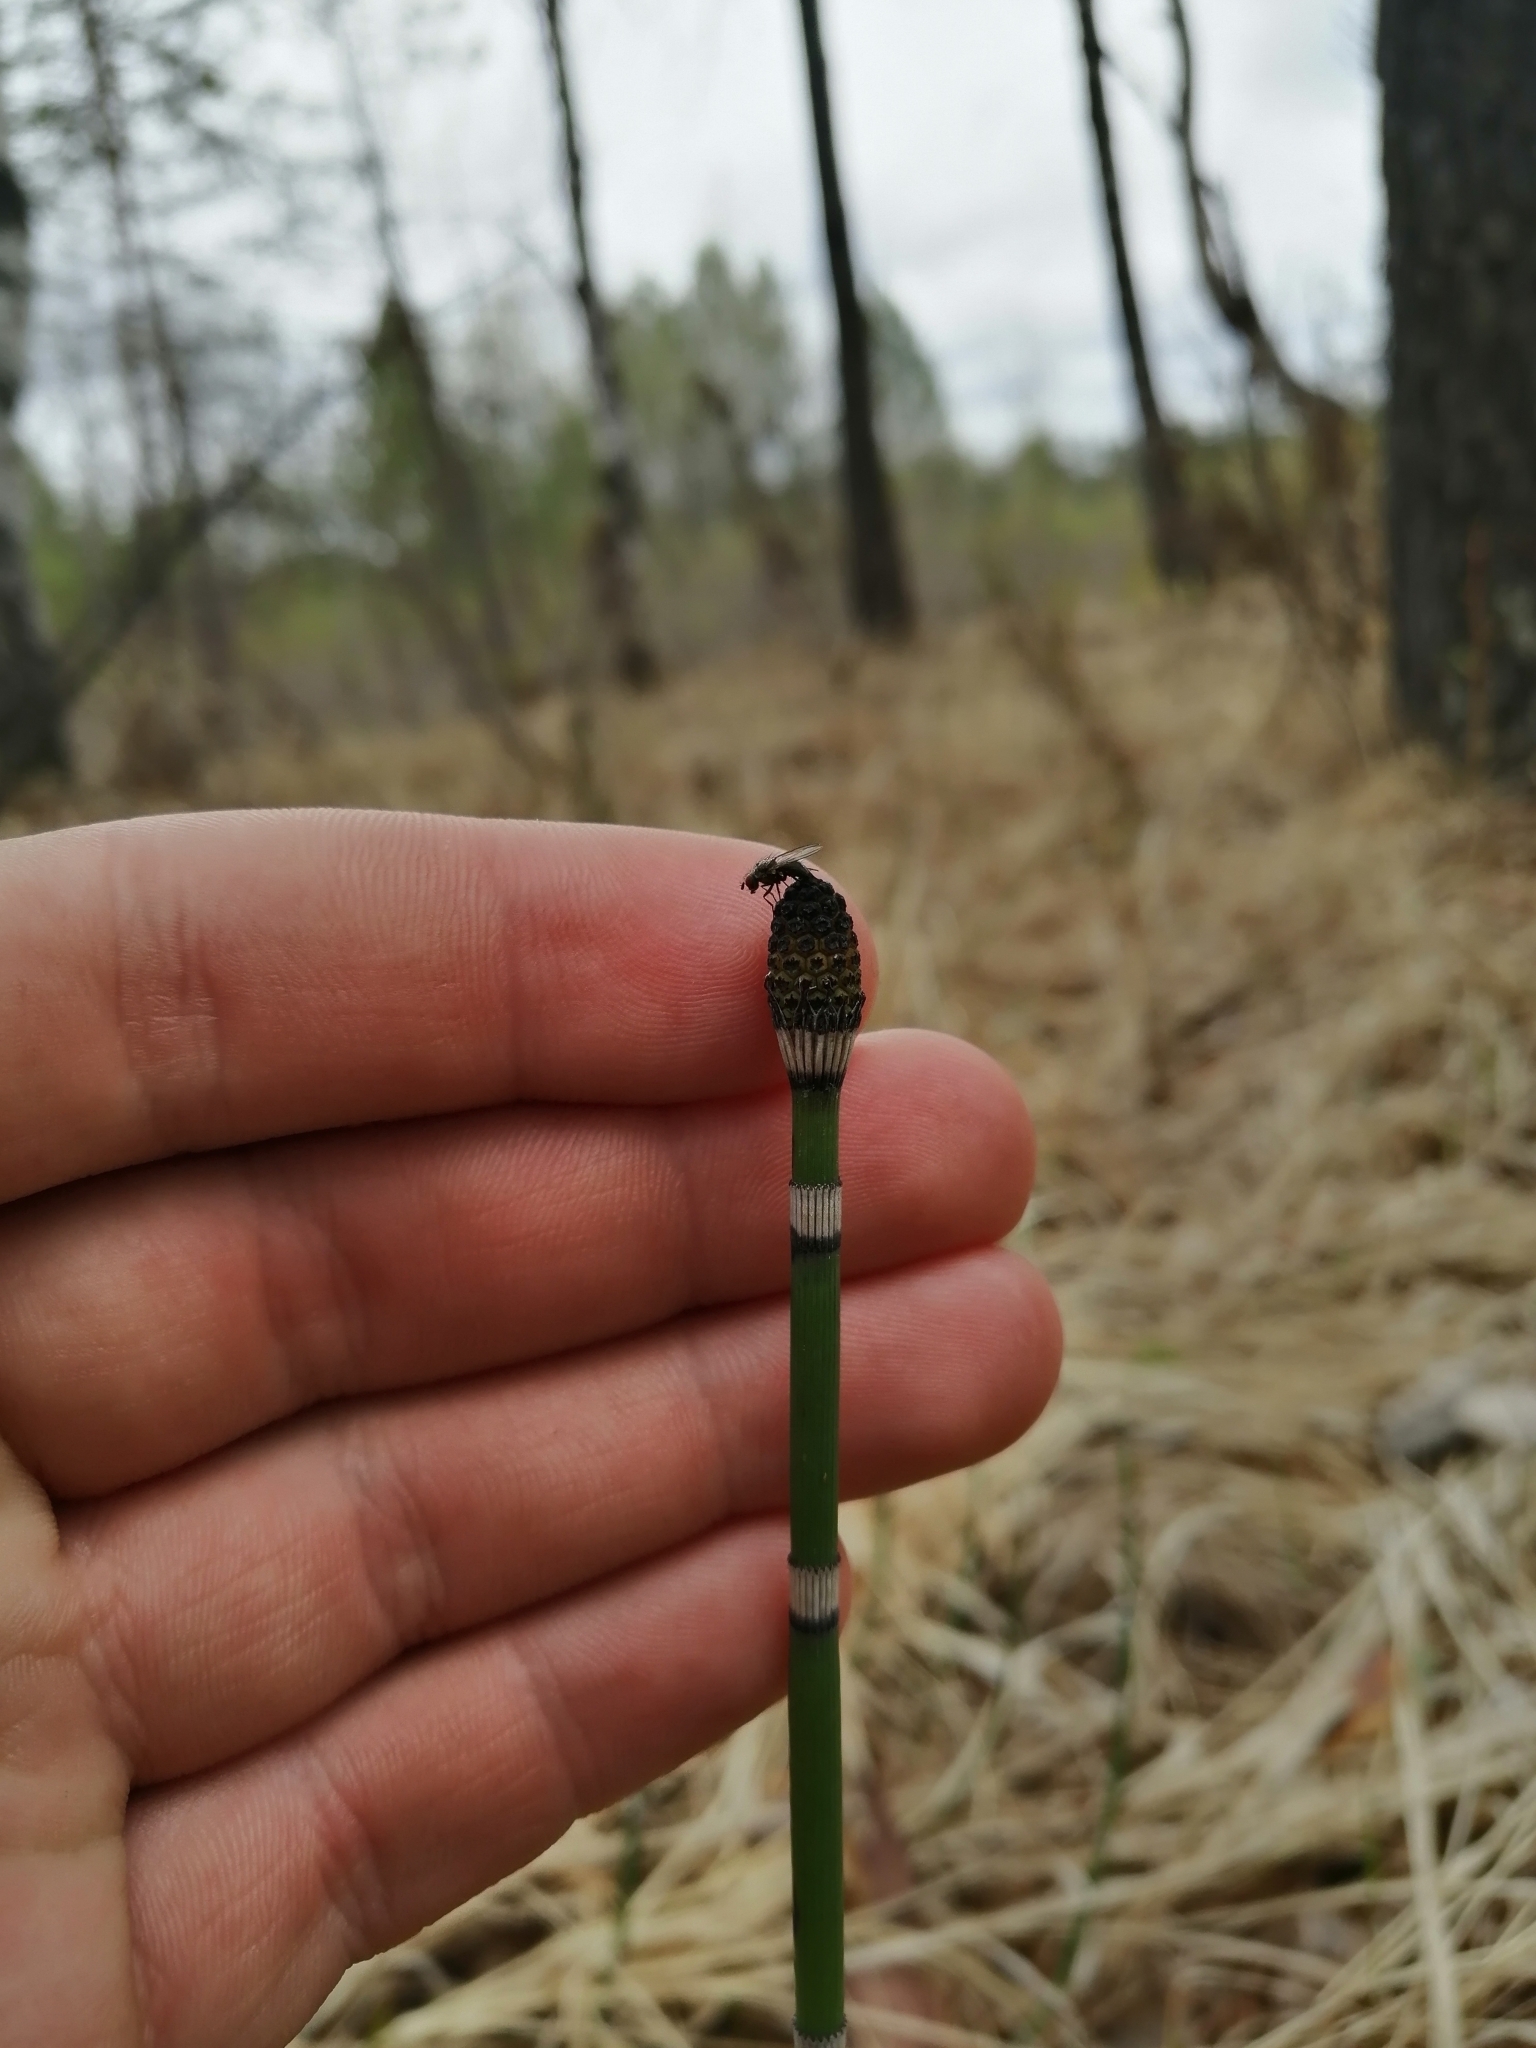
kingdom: Plantae
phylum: Tracheophyta
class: Polypodiopsida
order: Equisetales
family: Equisetaceae
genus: Equisetum
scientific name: Equisetum hyemale
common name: Rough horsetail
